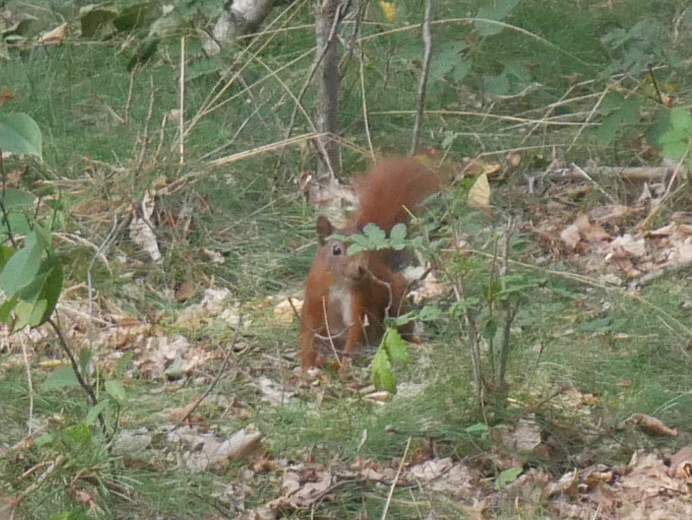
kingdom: Animalia
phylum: Chordata
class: Mammalia
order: Rodentia
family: Sciuridae
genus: Sciurus
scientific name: Sciurus vulgaris
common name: Eurasian red squirrel
